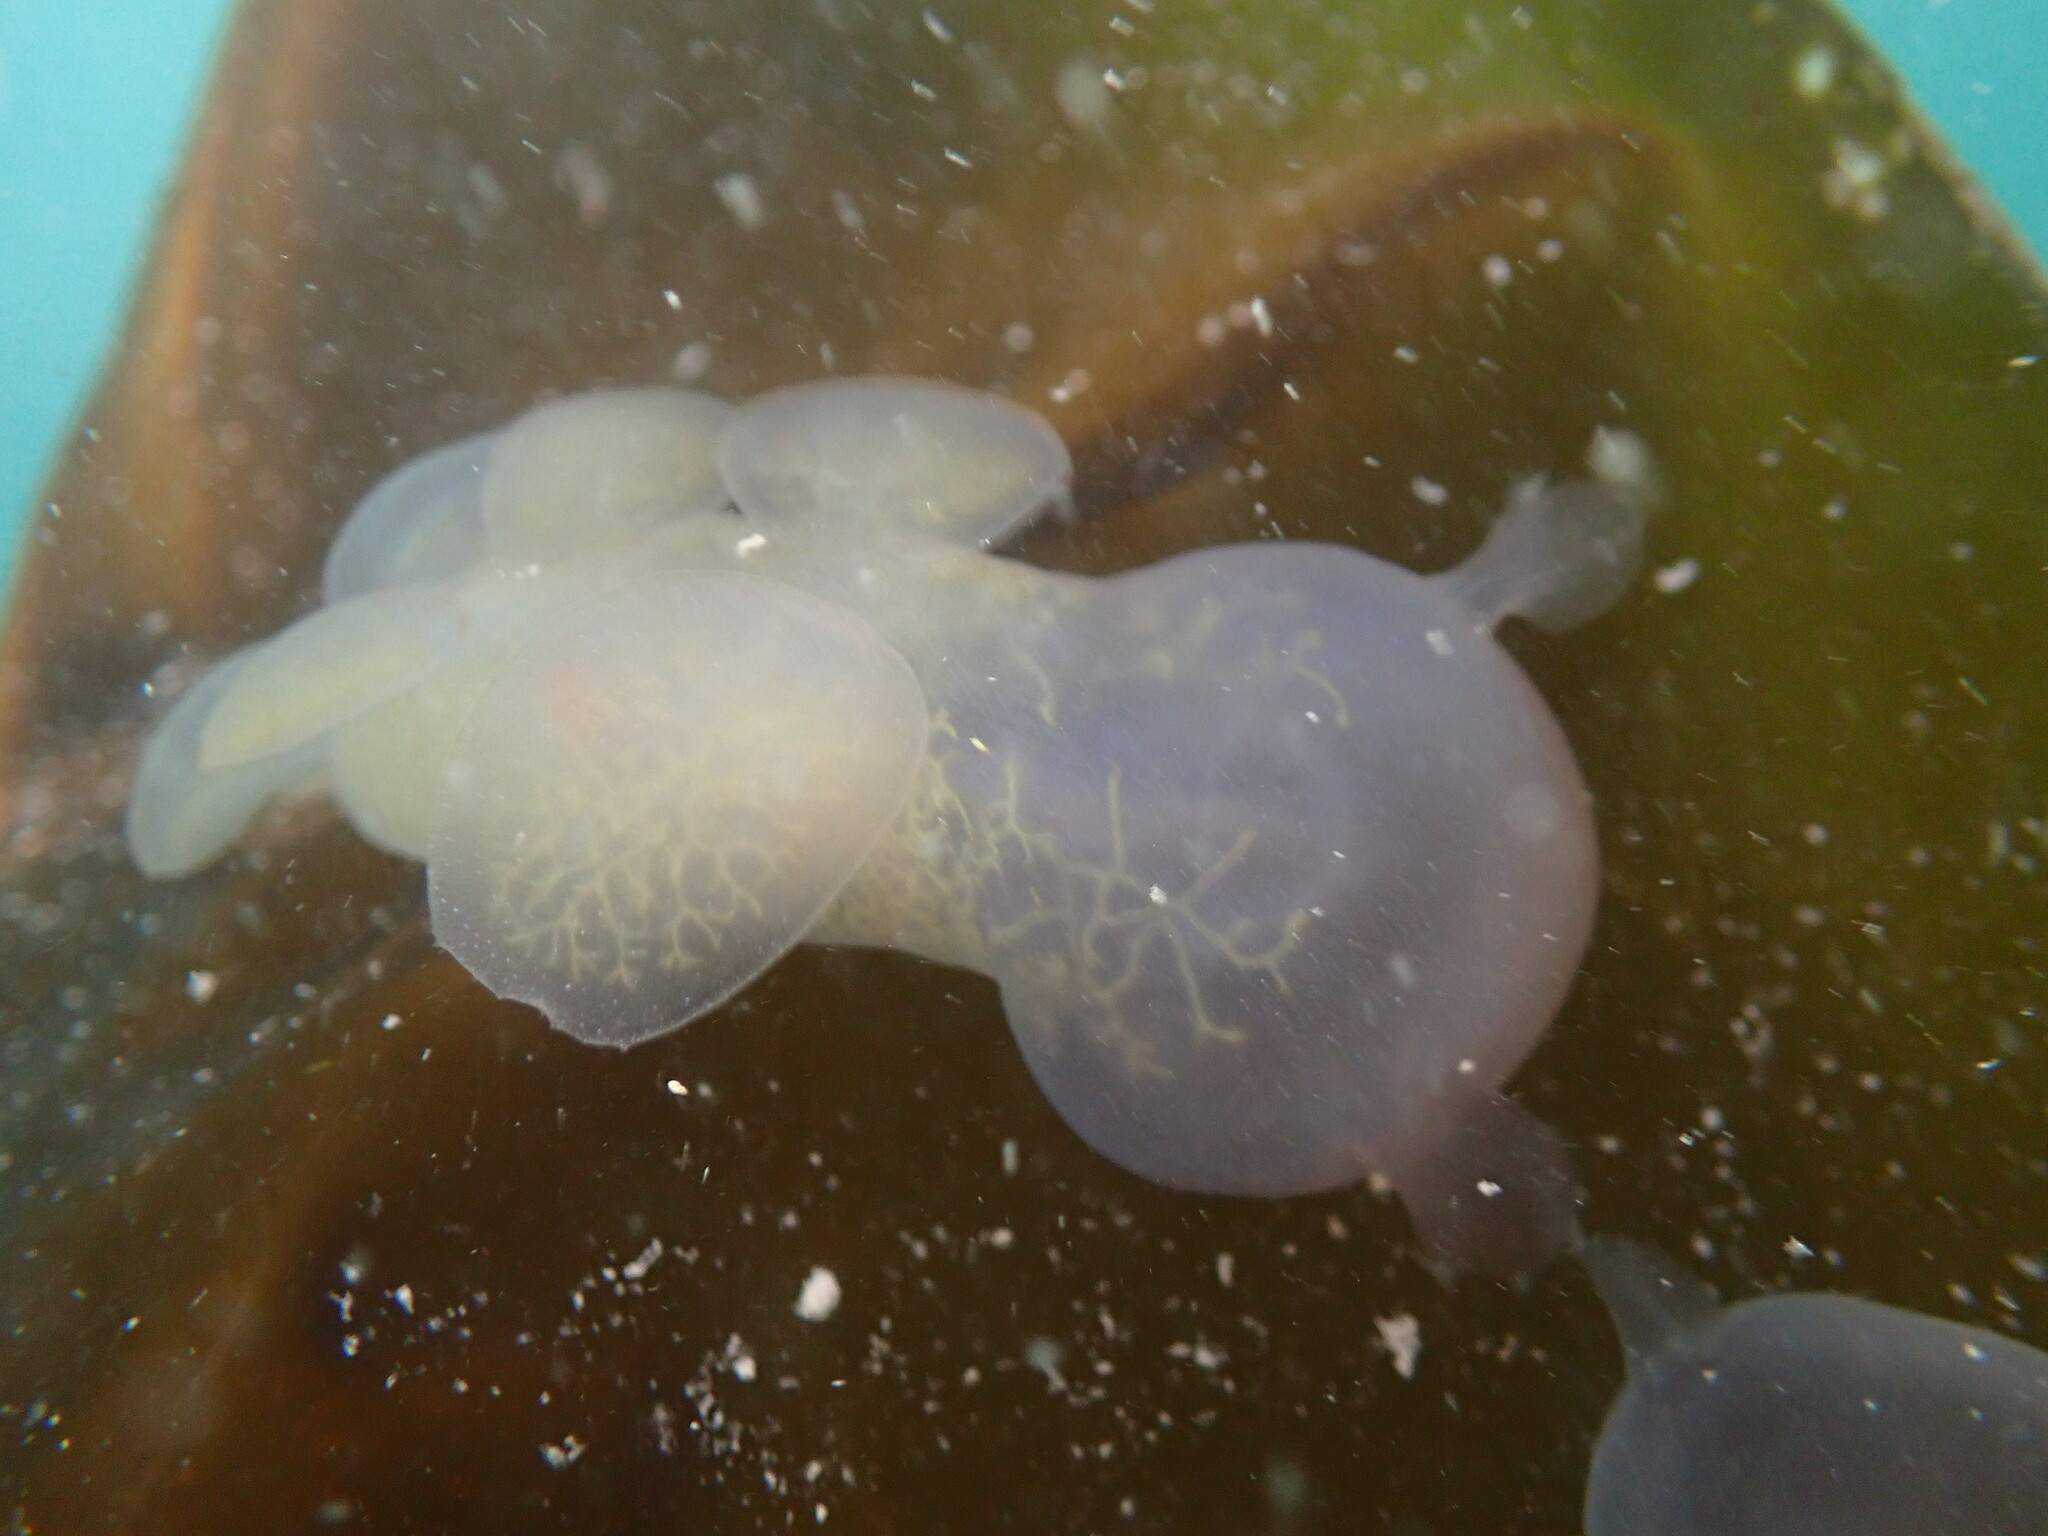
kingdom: Animalia
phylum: Mollusca
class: Gastropoda
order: Nudibranchia
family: Tethydidae
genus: Melibe
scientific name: Melibe leonina
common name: Lion nudibranch
